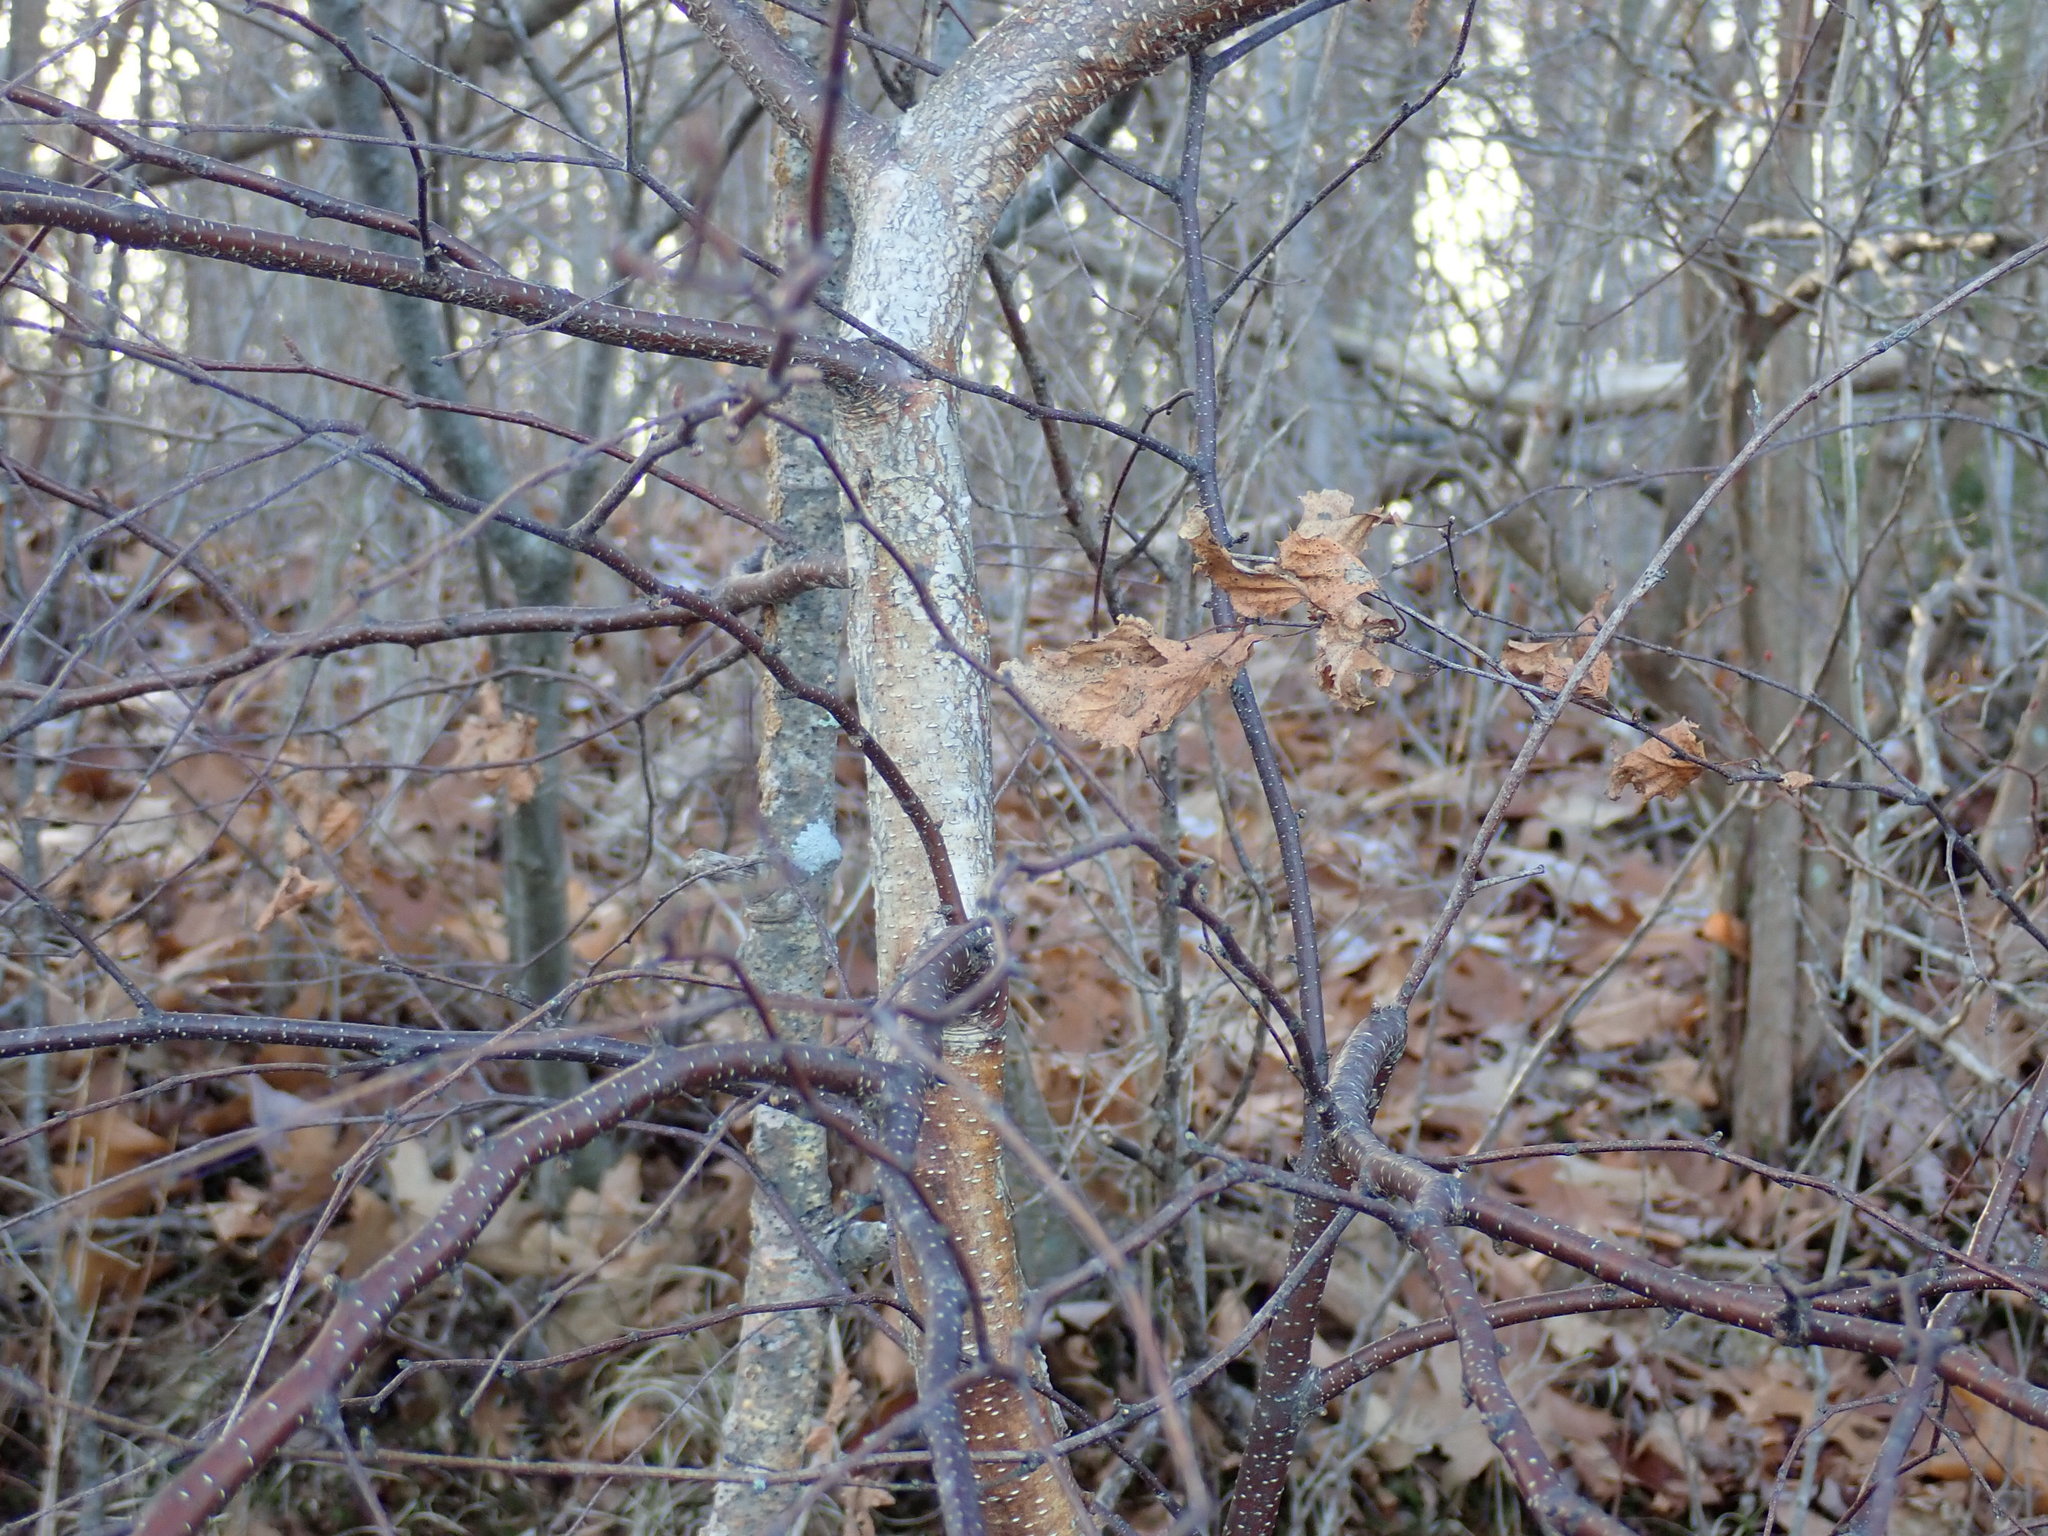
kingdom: Plantae
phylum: Tracheophyta
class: Magnoliopsida
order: Fagales
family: Betulaceae
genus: Betula
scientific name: Betula populifolia
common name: Fire birch
